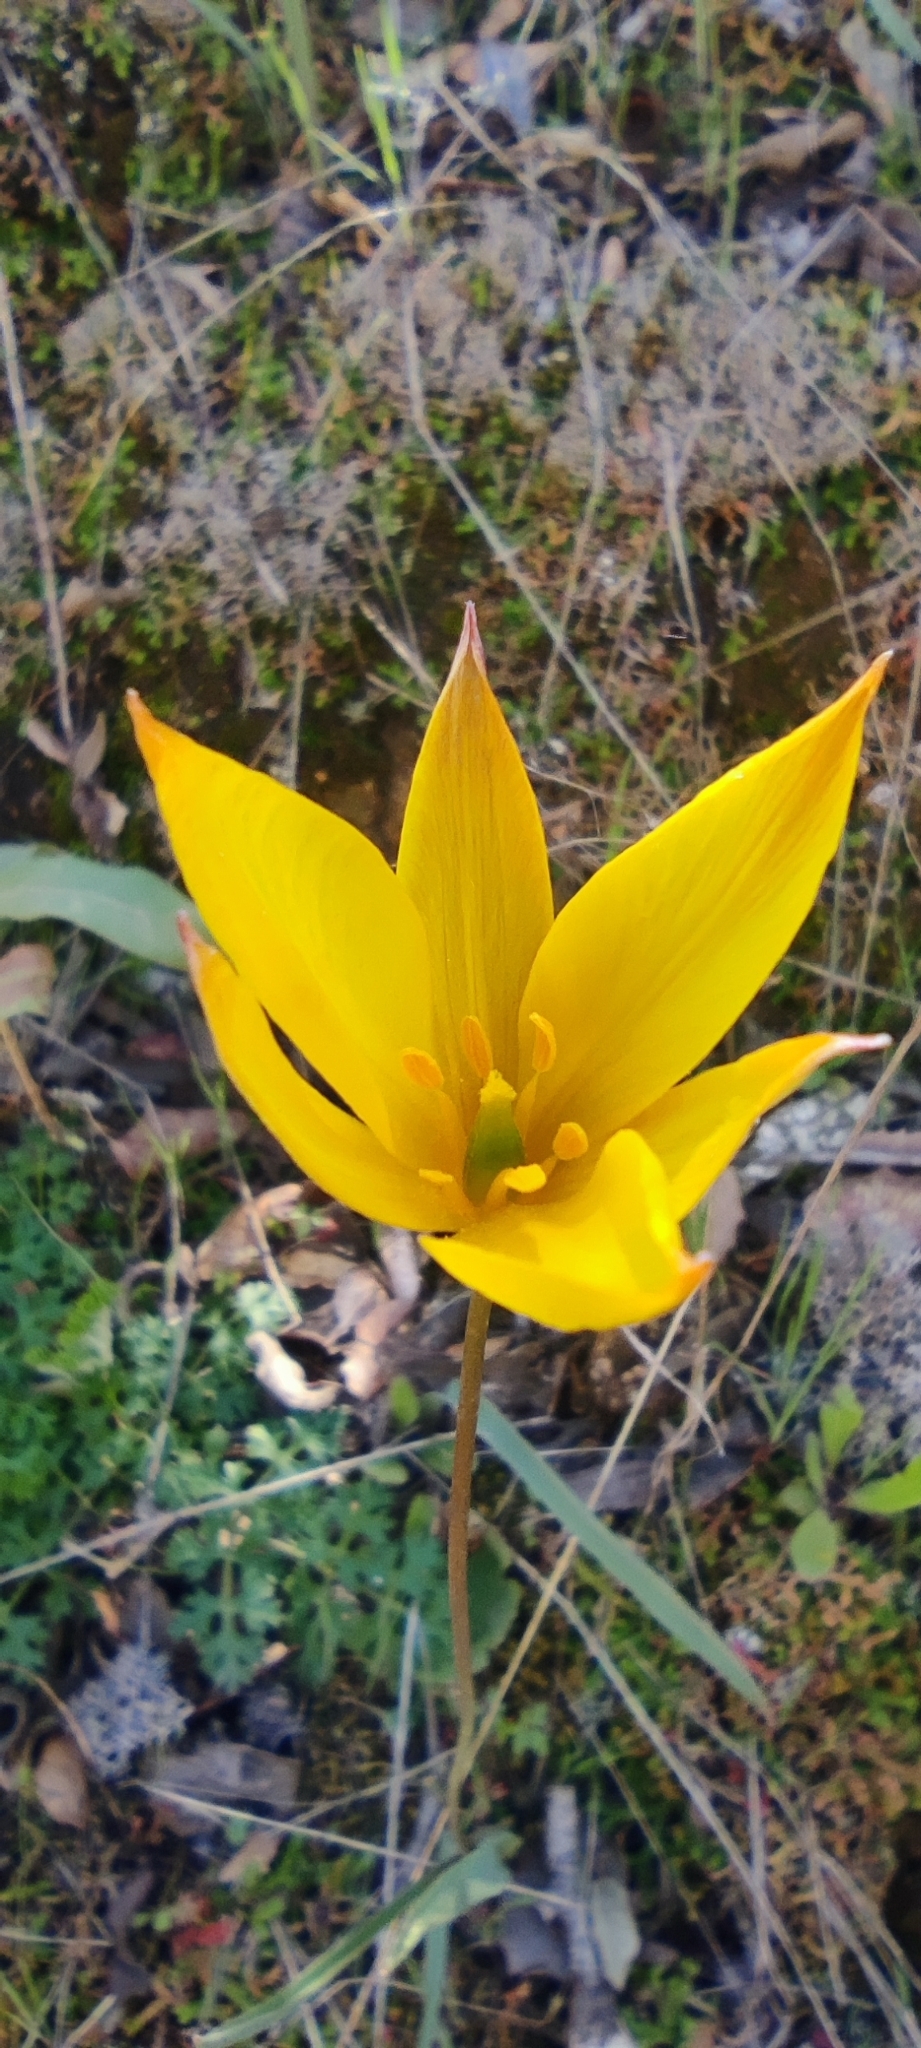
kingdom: Plantae
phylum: Tracheophyta
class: Liliopsida
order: Liliales
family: Liliaceae
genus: Tulipa
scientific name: Tulipa sylvestris
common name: Wild tulip
